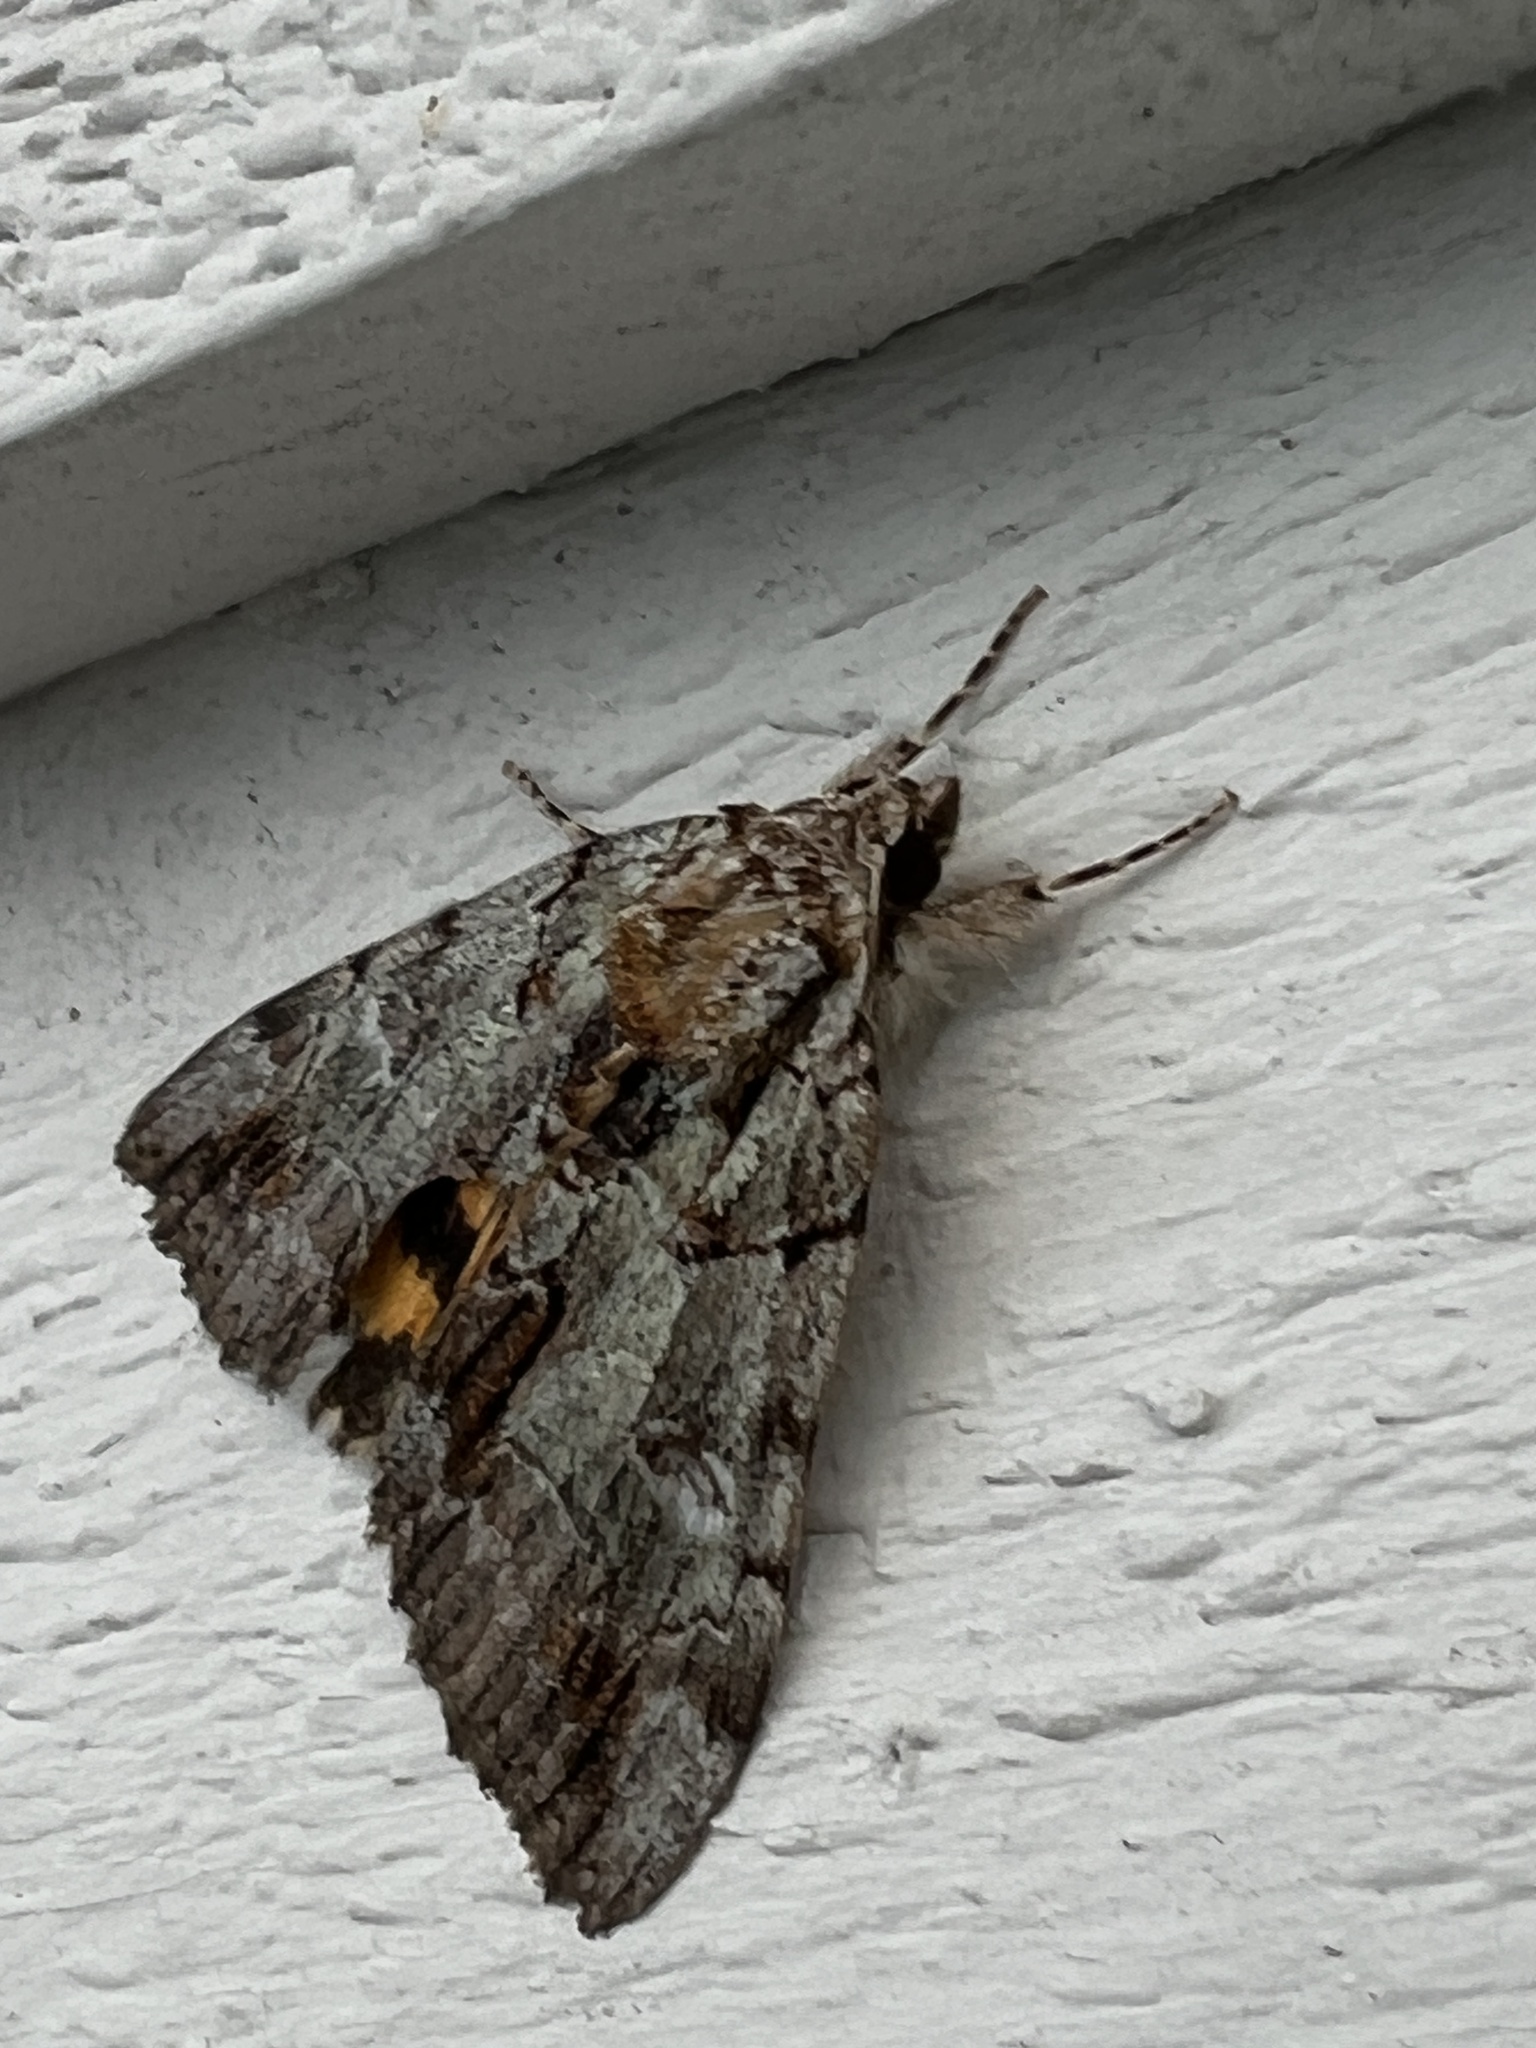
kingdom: Animalia
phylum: Arthropoda
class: Insecta
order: Lepidoptera
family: Erebidae
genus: Catocala
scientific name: Catocala praeclara
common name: Praeclara underwing
